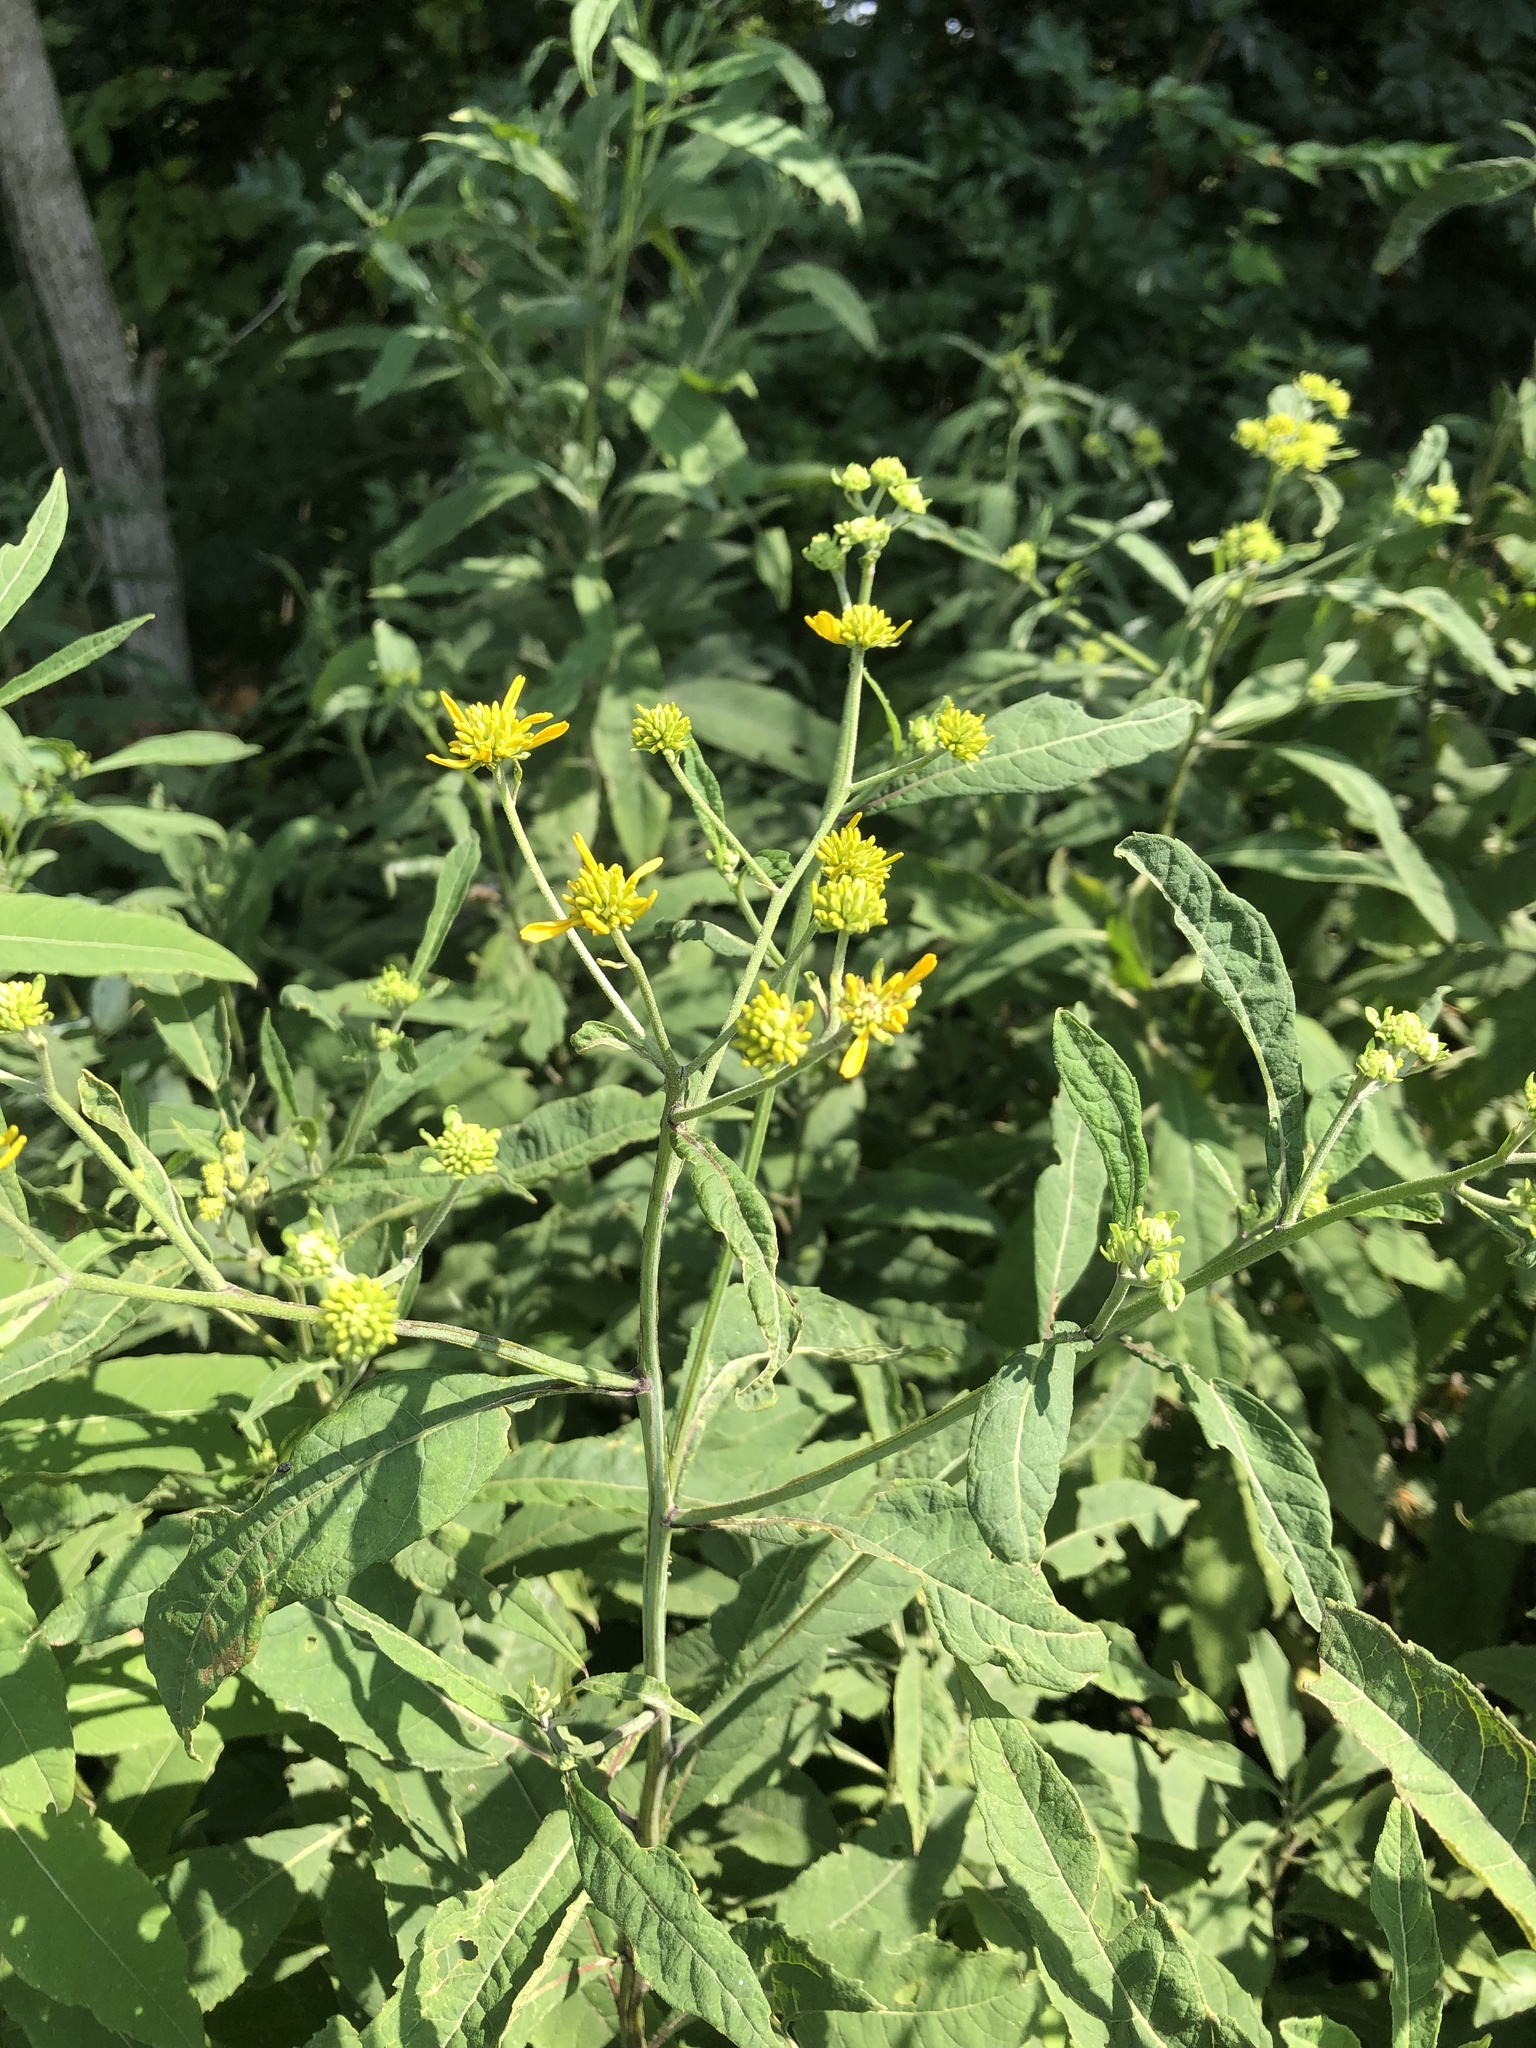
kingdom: Plantae
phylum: Tracheophyta
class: Magnoliopsida
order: Asterales
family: Asteraceae
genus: Verbesina
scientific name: Verbesina alternifolia
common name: Wingstem
